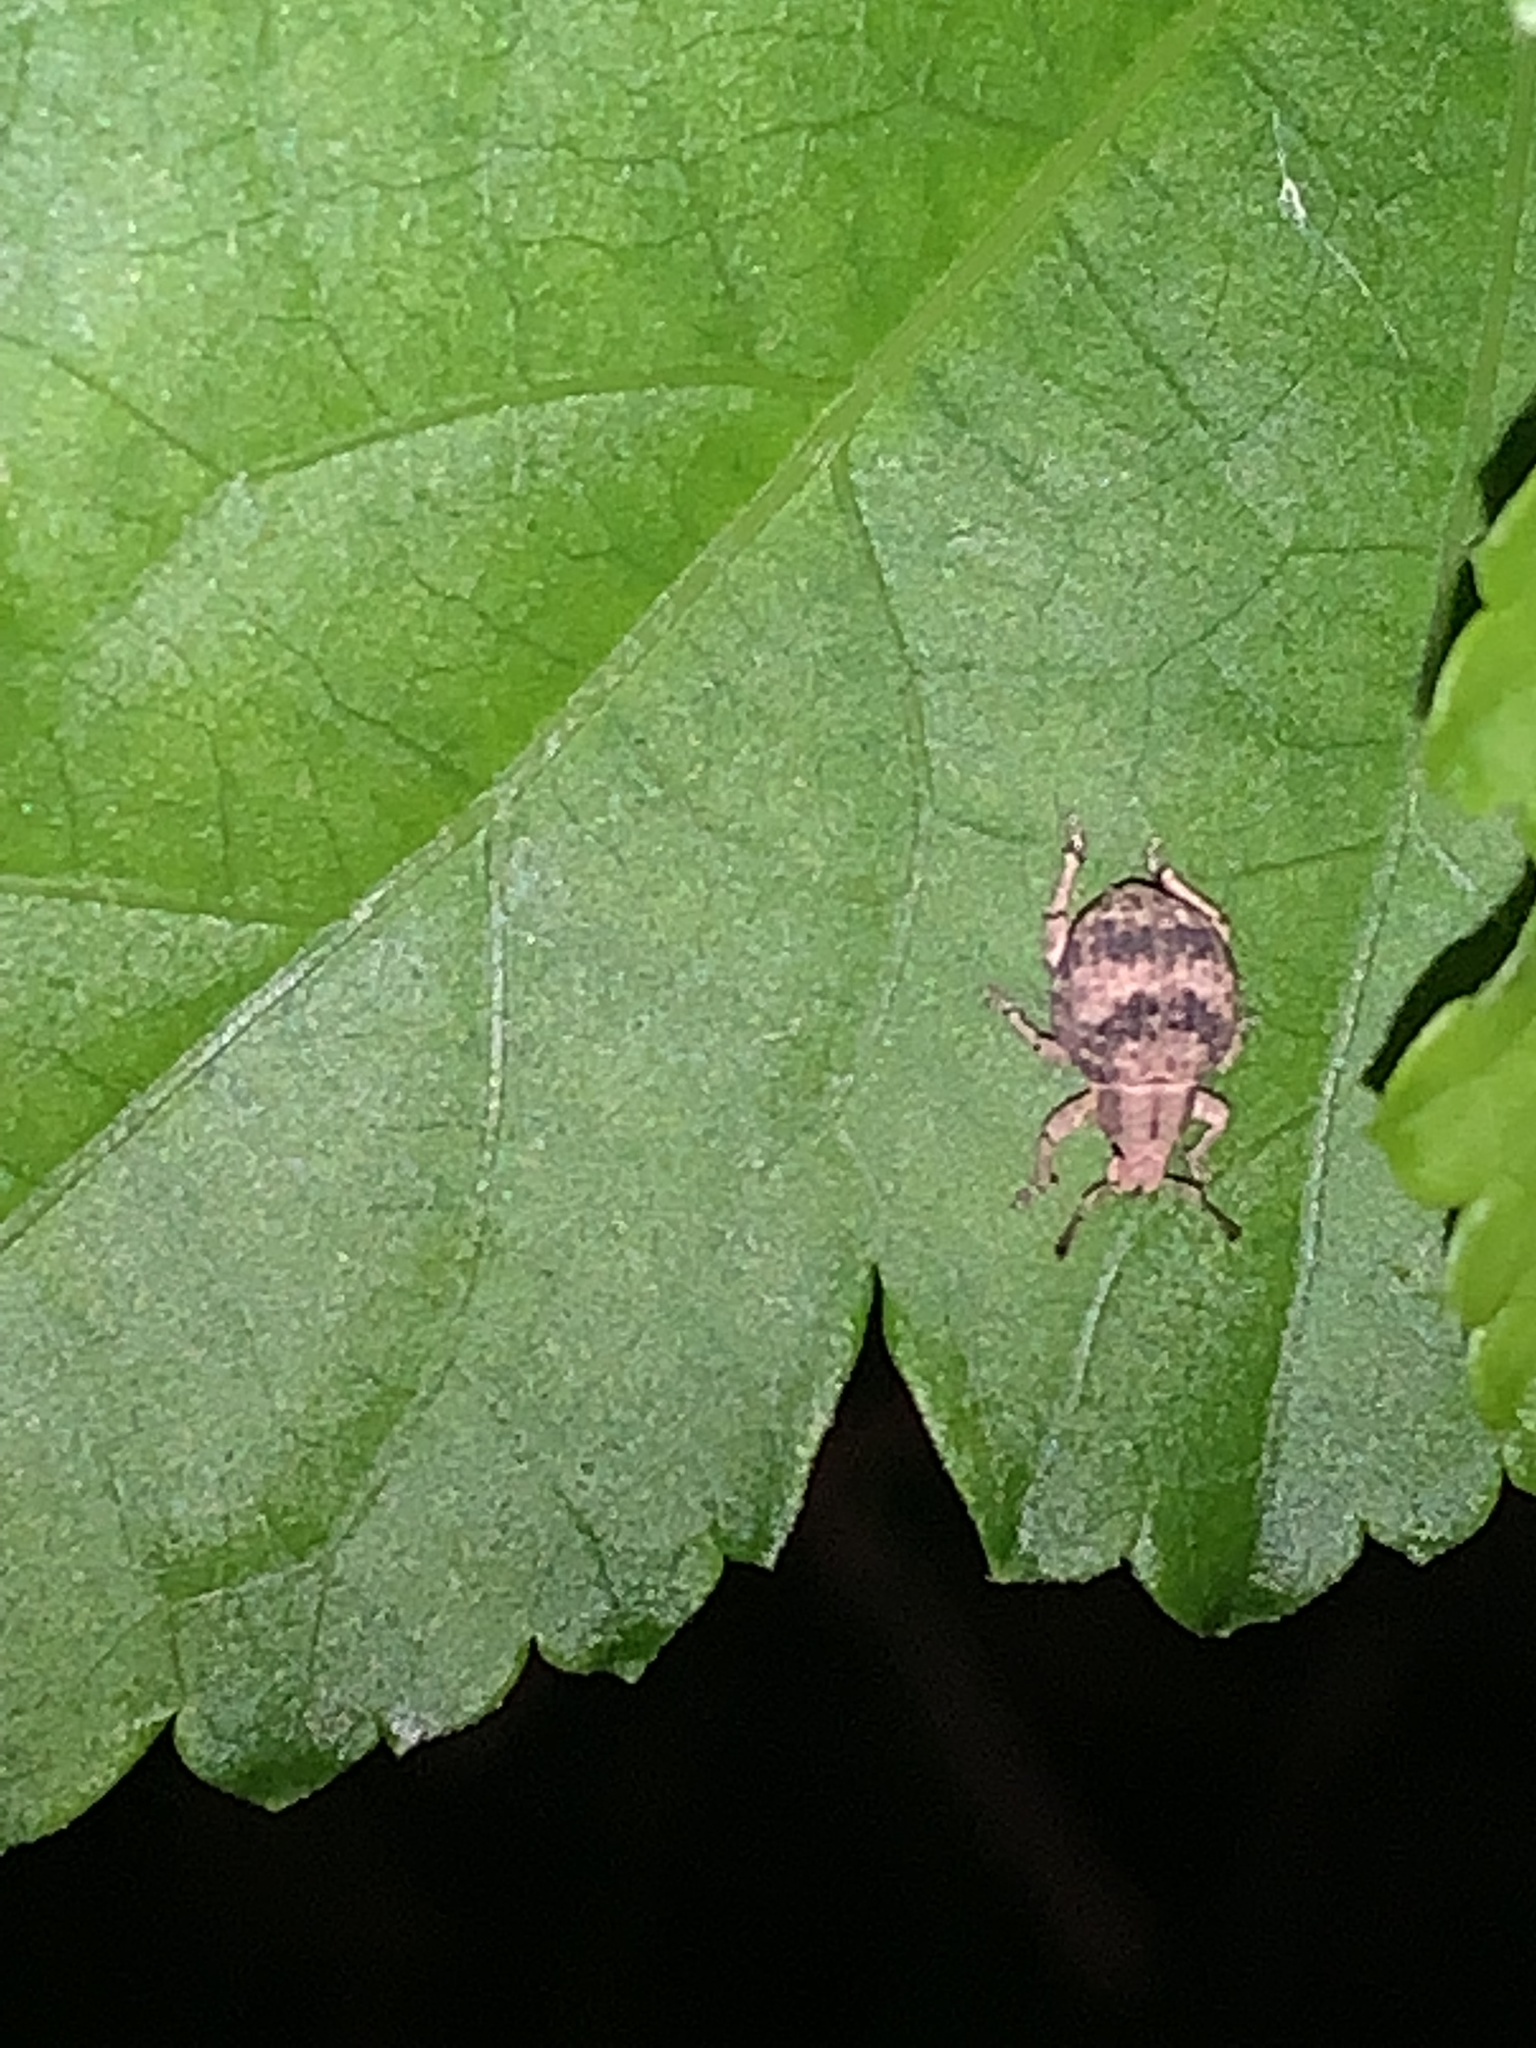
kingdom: Animalia
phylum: Arthropoda
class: Insecta
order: Coleoptera
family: Curculionidae
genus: Pseudocneorhinus
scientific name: Pseudocneorhinus bifasciatus
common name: Two-banded japanese weevil
